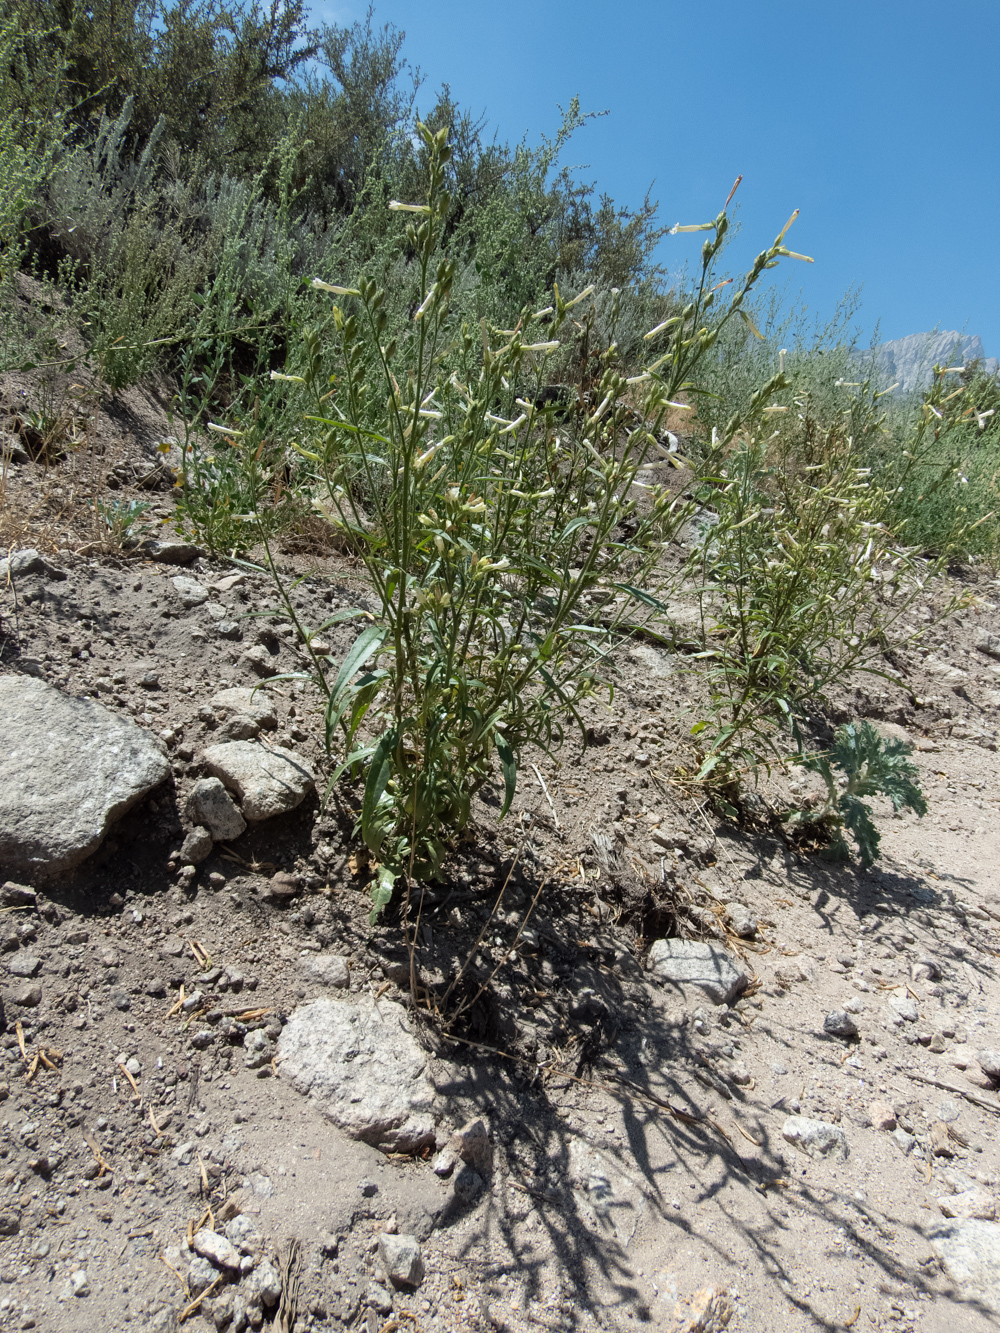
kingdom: Plantae
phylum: Tracheophyta
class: Magnoliopsida
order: Solanales
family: Solanaceae
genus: Nicotiana
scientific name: Nicotiana attenuata
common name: Coyote tobacco
